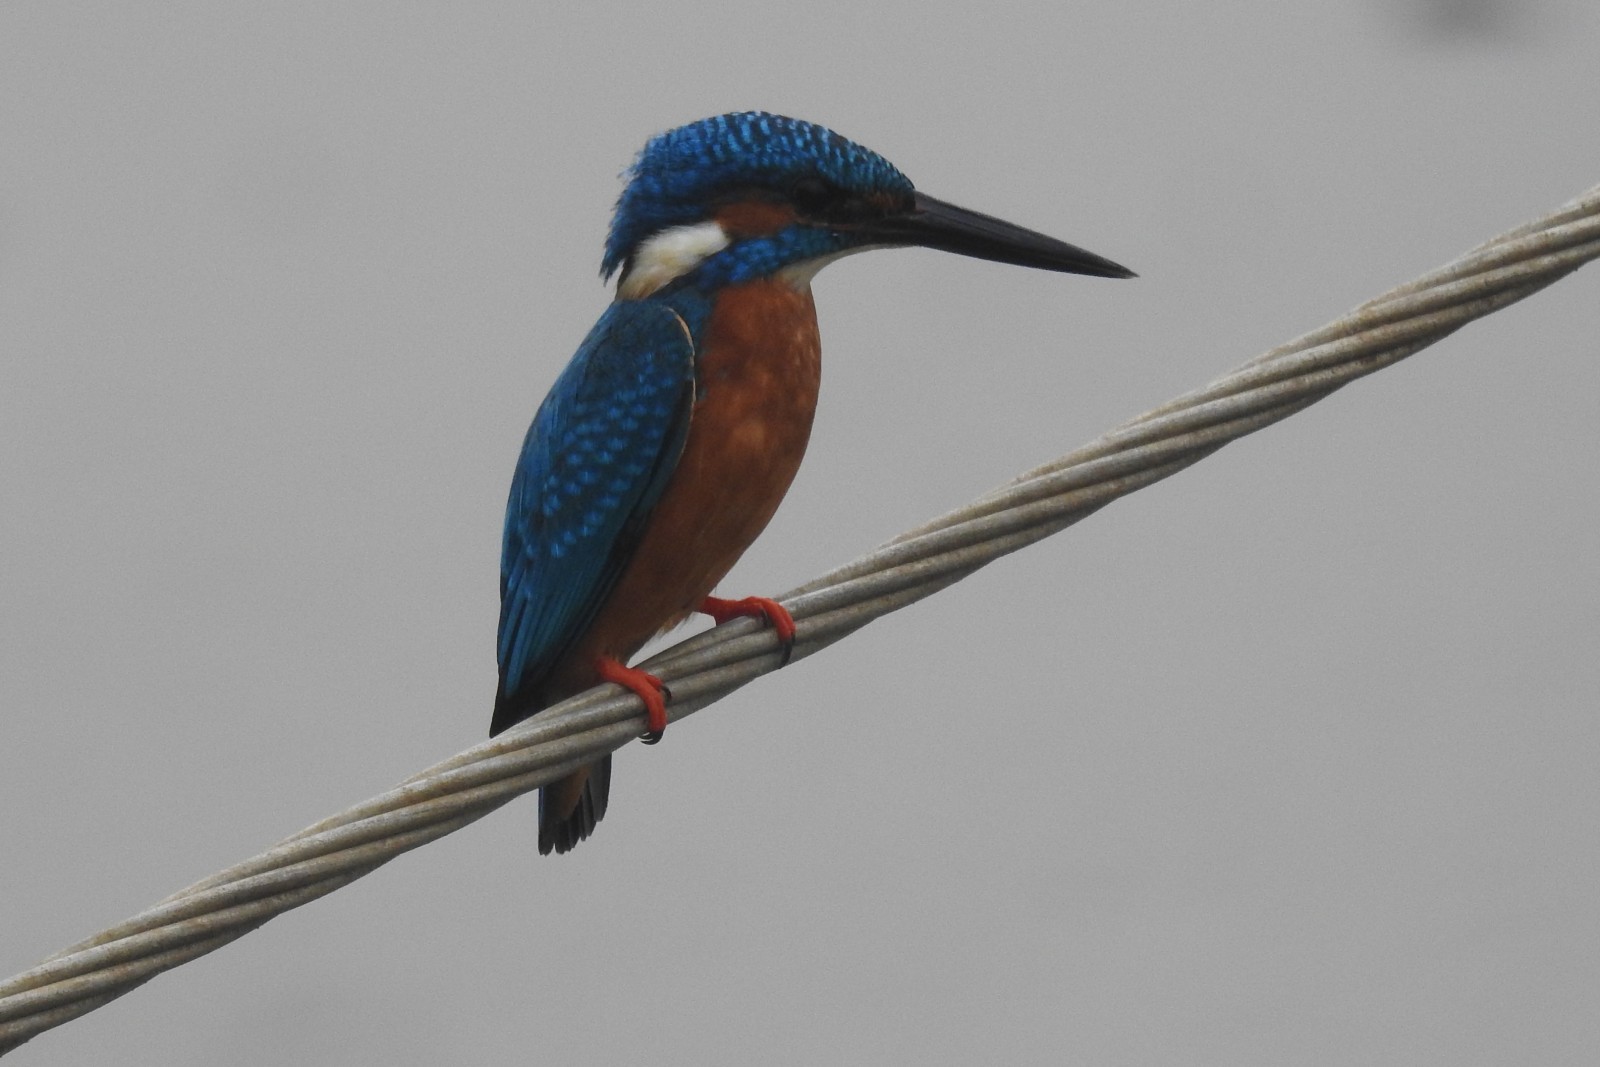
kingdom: Animalia
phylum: Chordata
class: Aves
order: Coraciiformes
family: Alcedinidae
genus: Alcedo
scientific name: Alcedo atthis
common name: Common kingfisher
